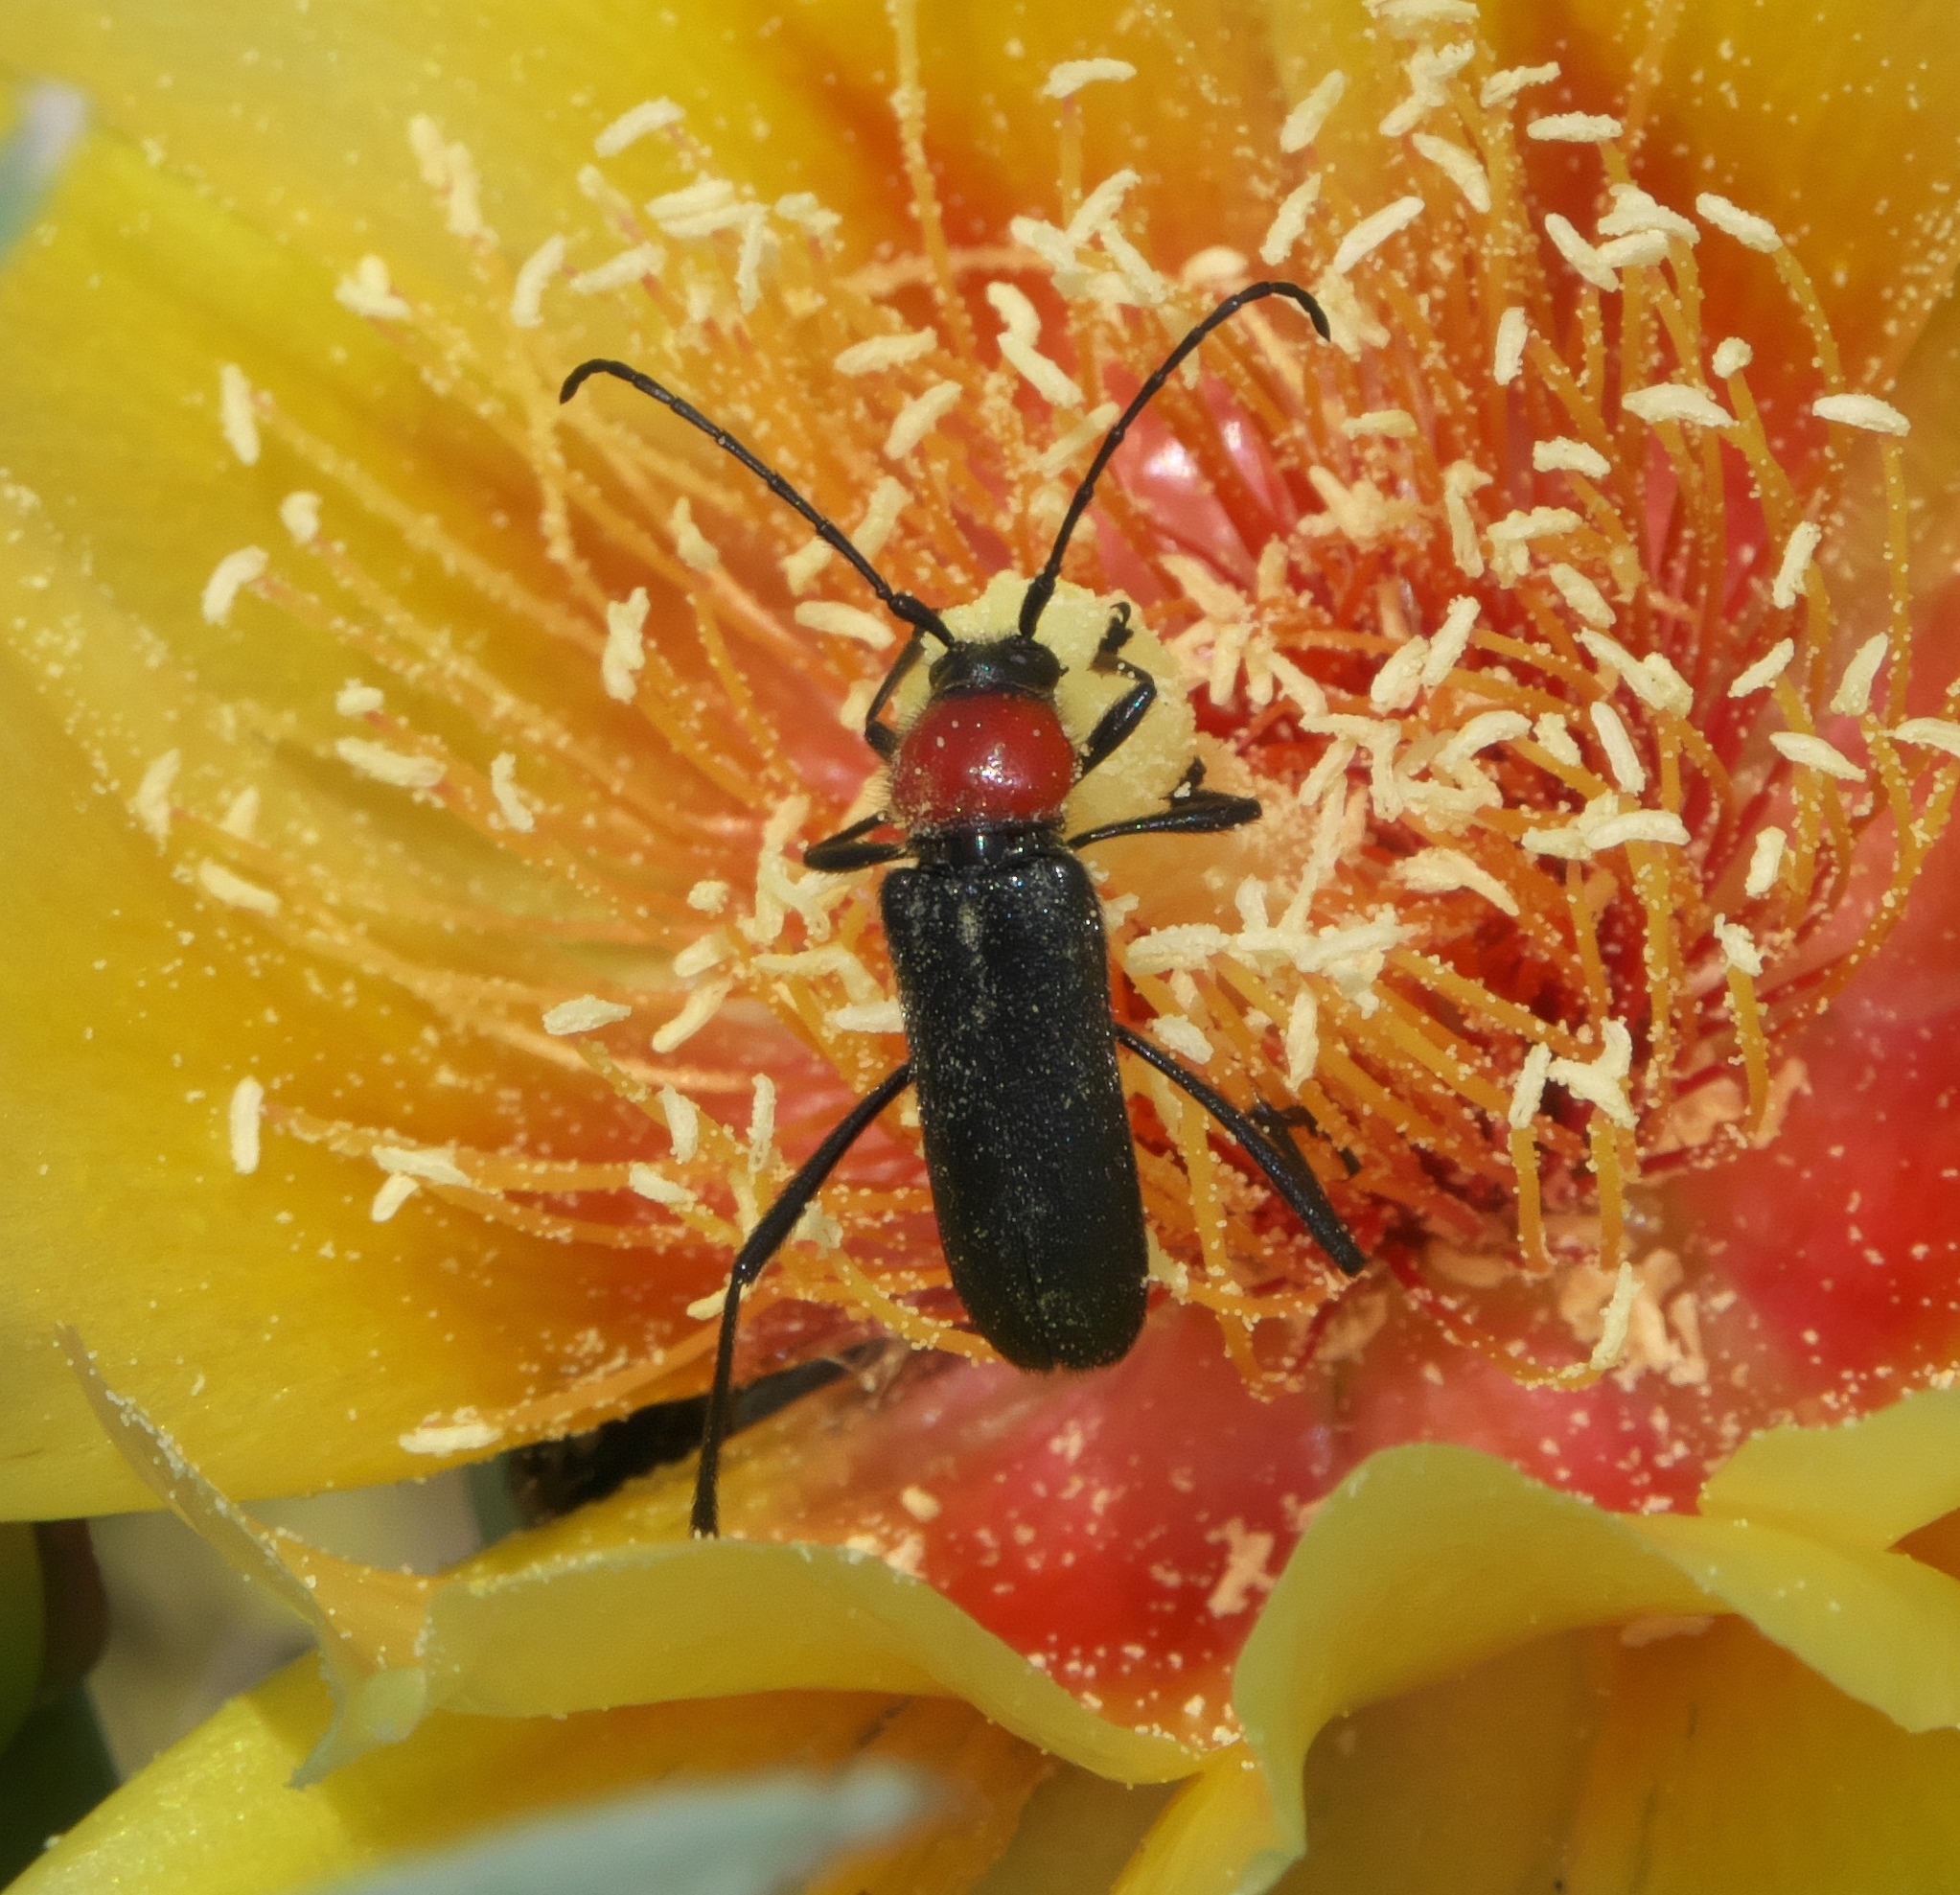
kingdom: Animalia
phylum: Arthropoda
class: Insecta
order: Coleoptera
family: Cerambycidae
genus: Batyle
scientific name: Batyle ignicollis
